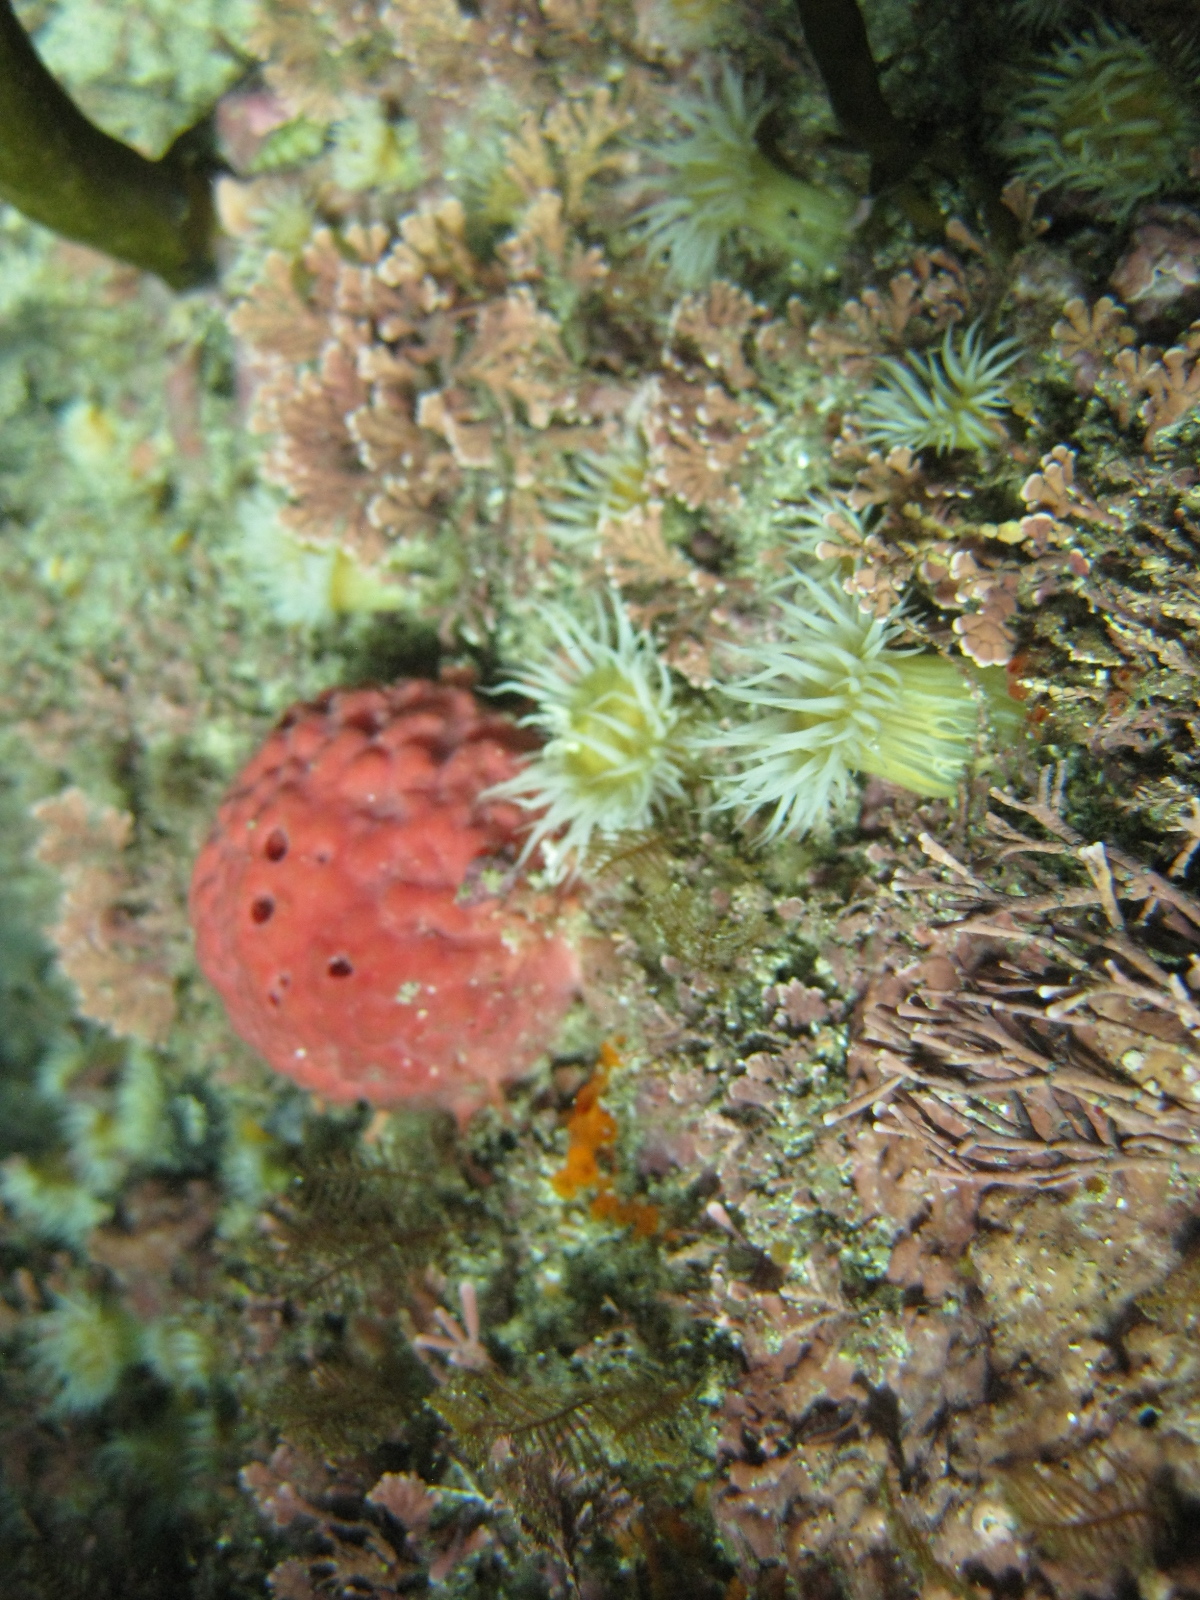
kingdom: Animalia
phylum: Porifera
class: Demospongiae
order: Tethyida
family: Tethyidae
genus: Tethya
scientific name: Tethya bergquistae
